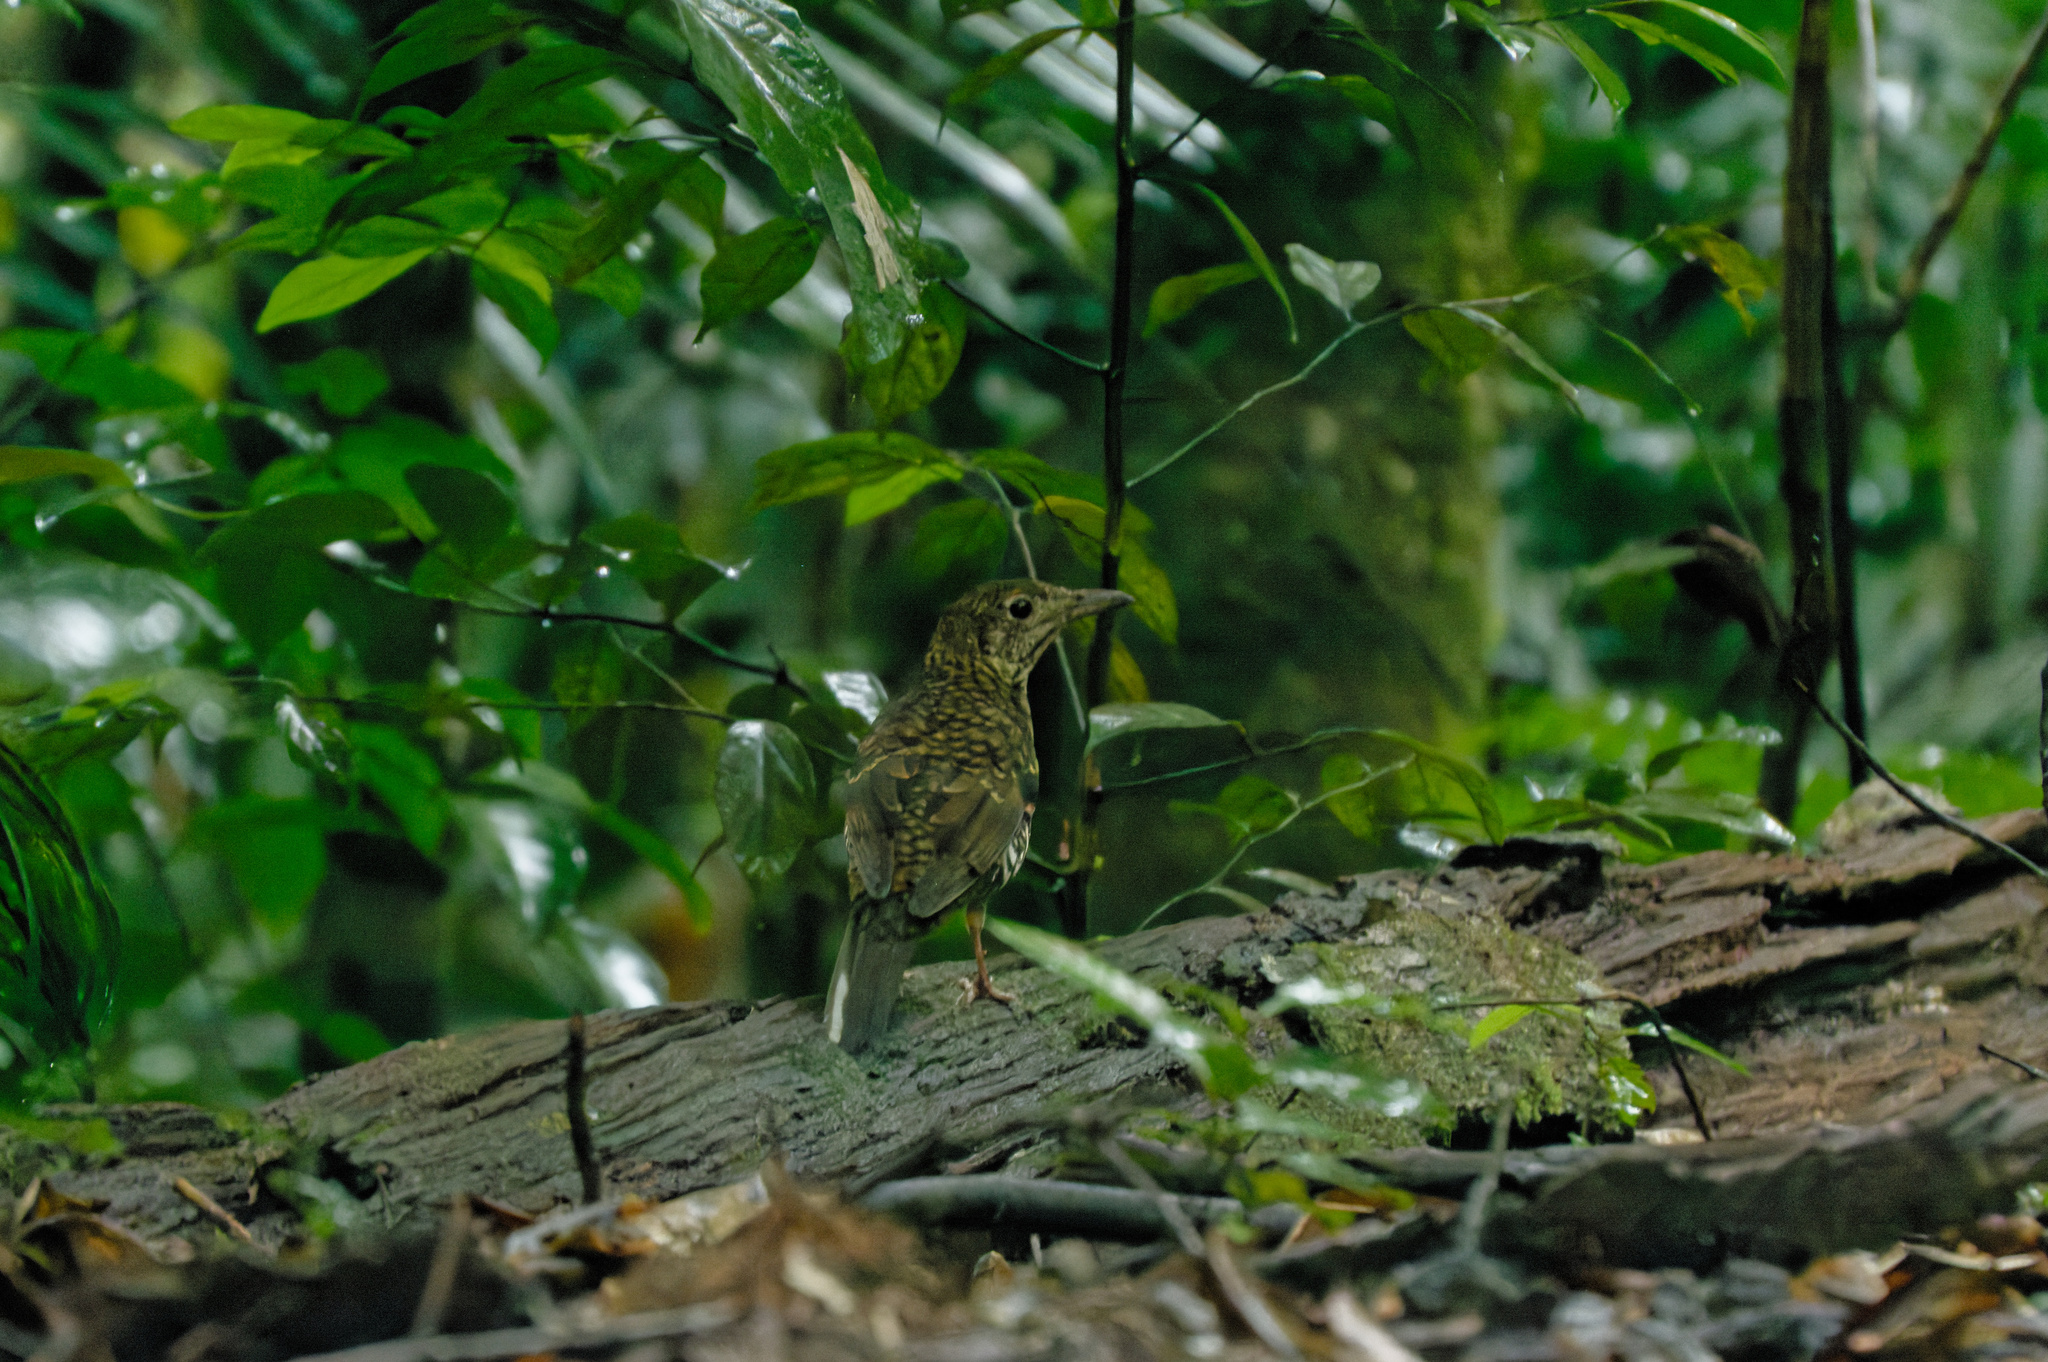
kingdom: Animalia
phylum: Chordata
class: Aves
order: Passeriformes
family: Turdidae
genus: Zoothera
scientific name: Zoothera lunulata
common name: Bassian thrush
